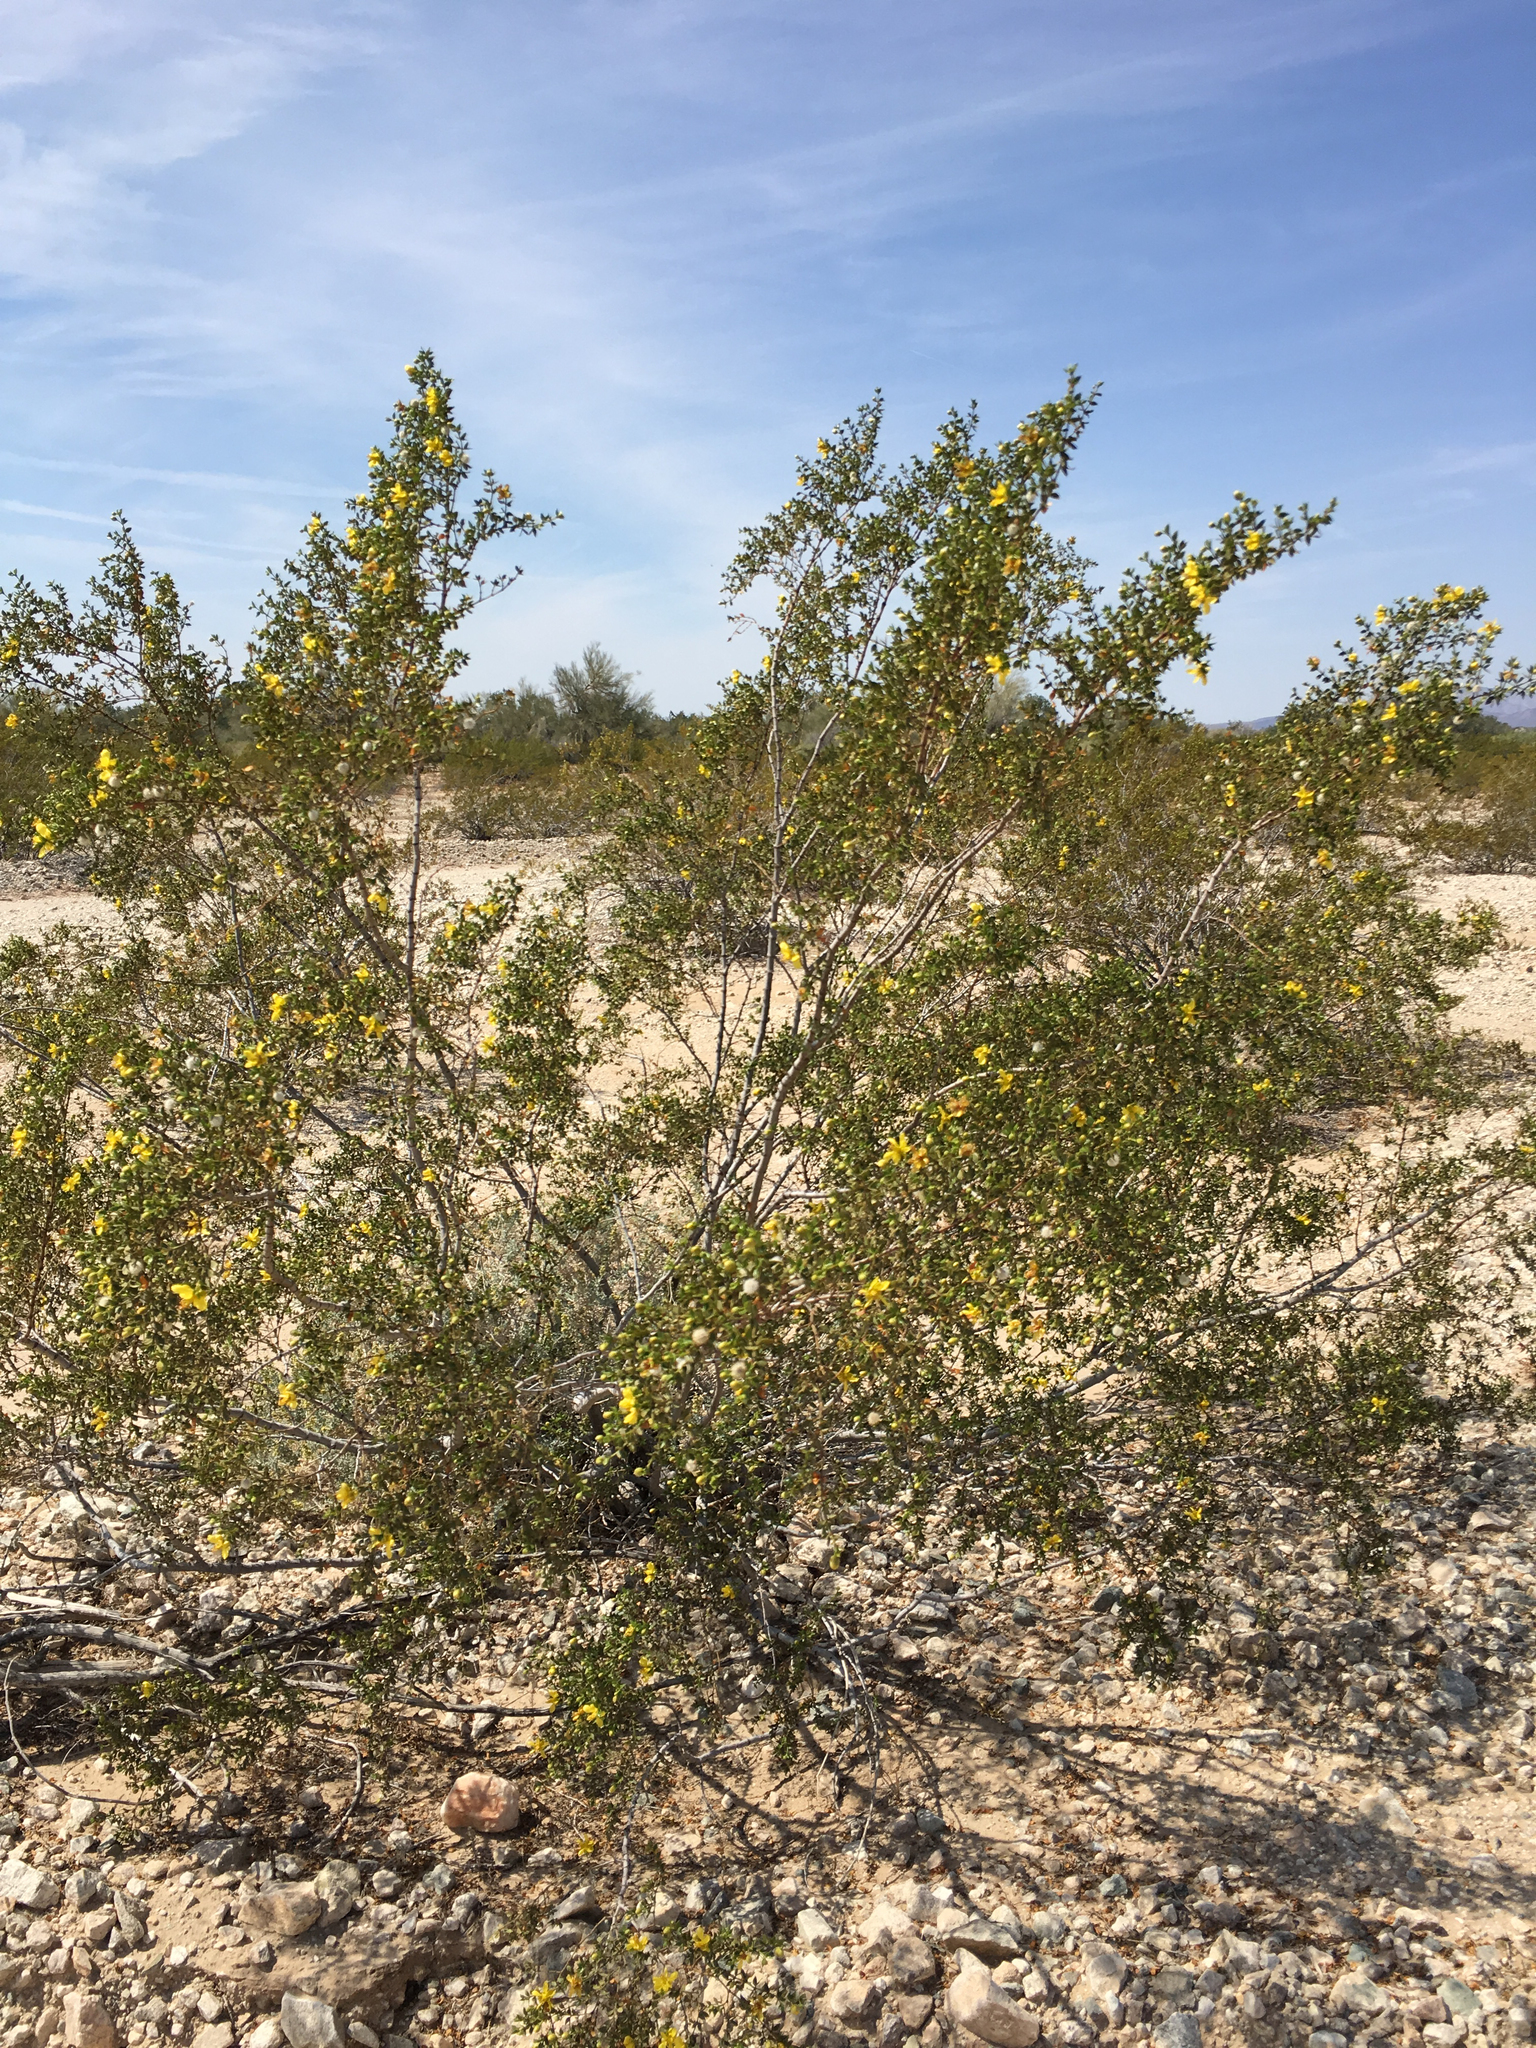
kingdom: Plantae
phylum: Tracheophyta
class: Magnoliopsida
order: Zygophyllales
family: Zygophyllaceae
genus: Larrea
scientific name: Larrea tridentata
